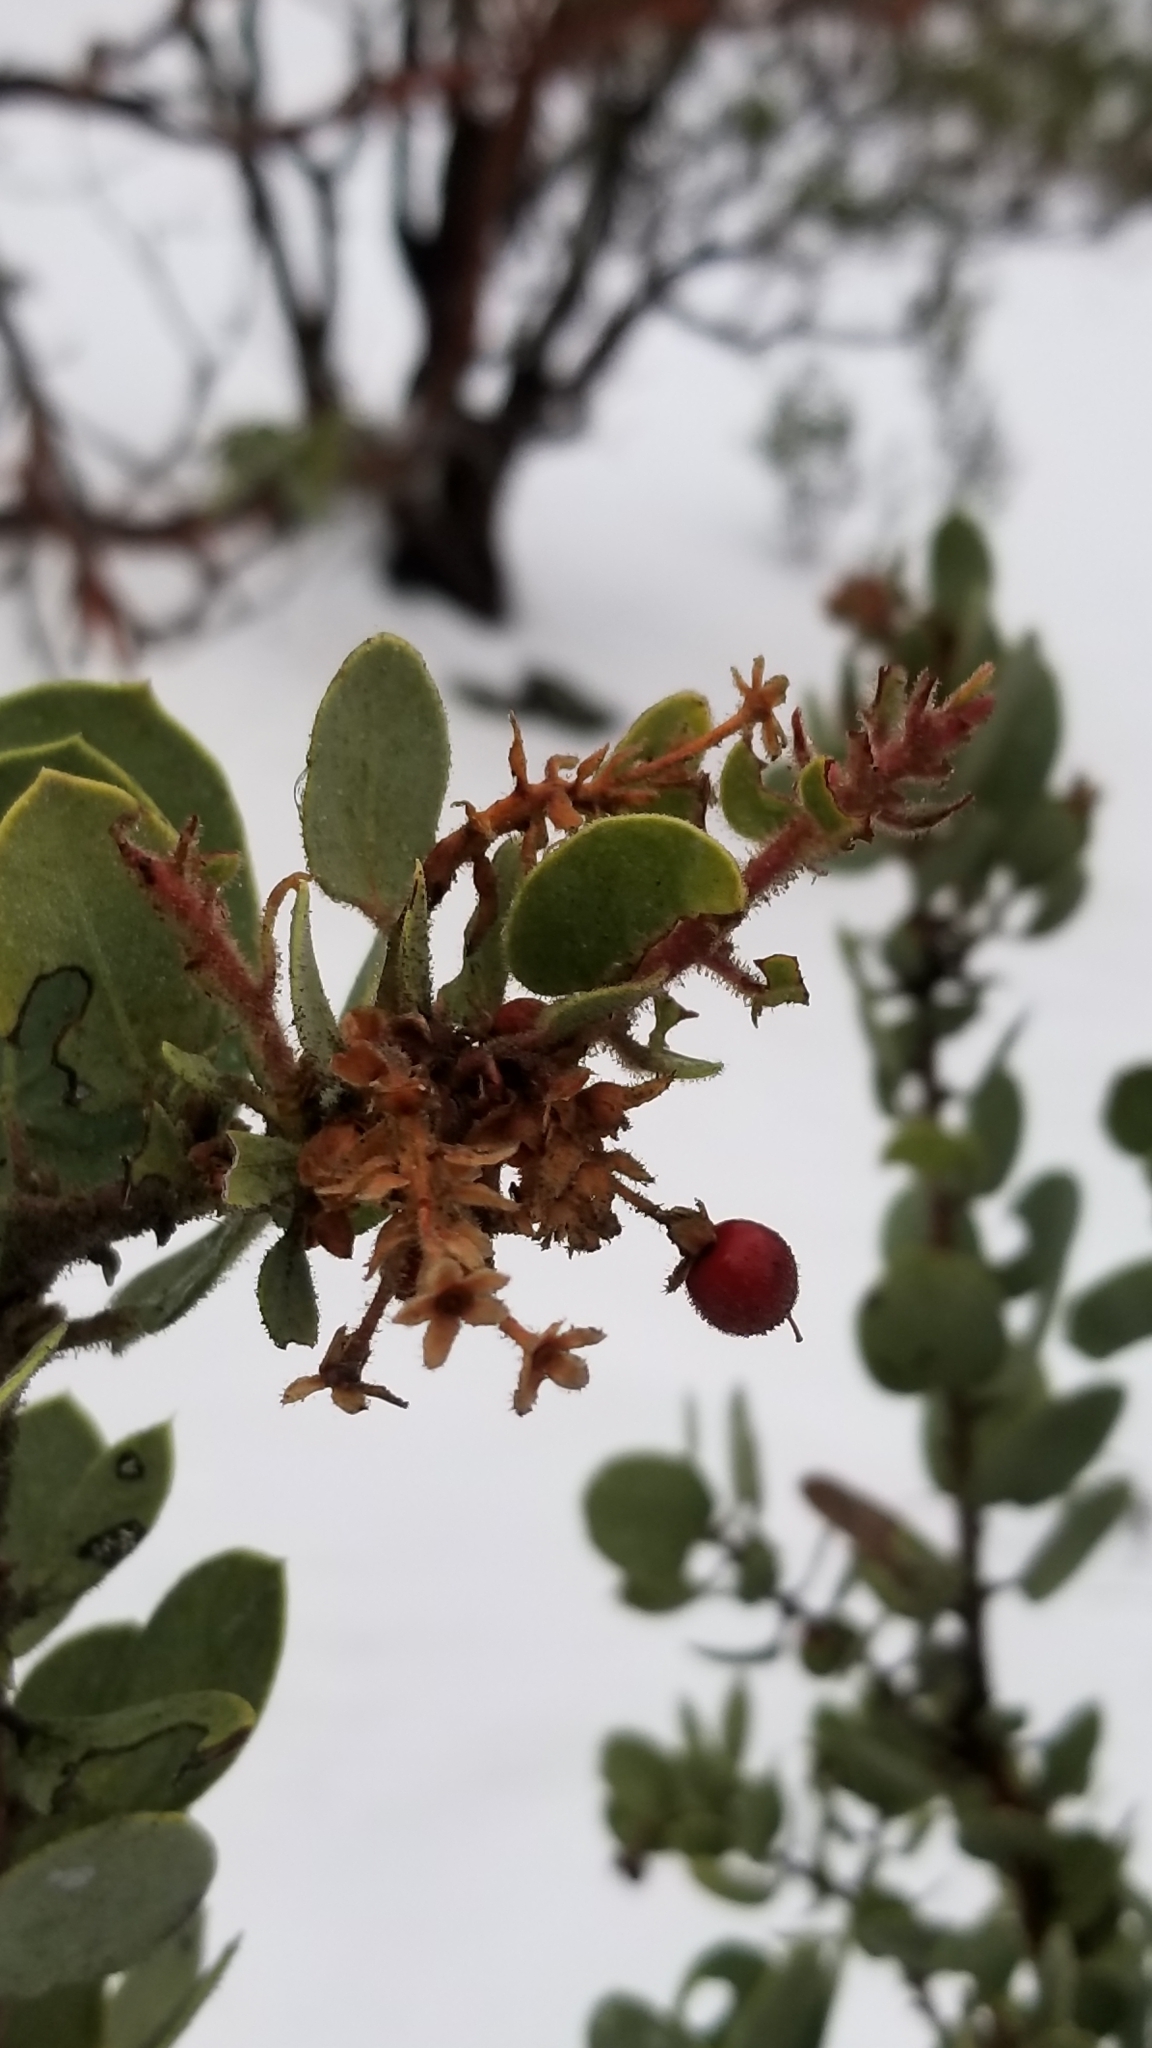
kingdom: Plantae
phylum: Tracheophyta
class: Magnoliopsida
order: Ericales
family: Ericaceae
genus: Arctostaphylos
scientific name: Arctostaphylos pringlei
